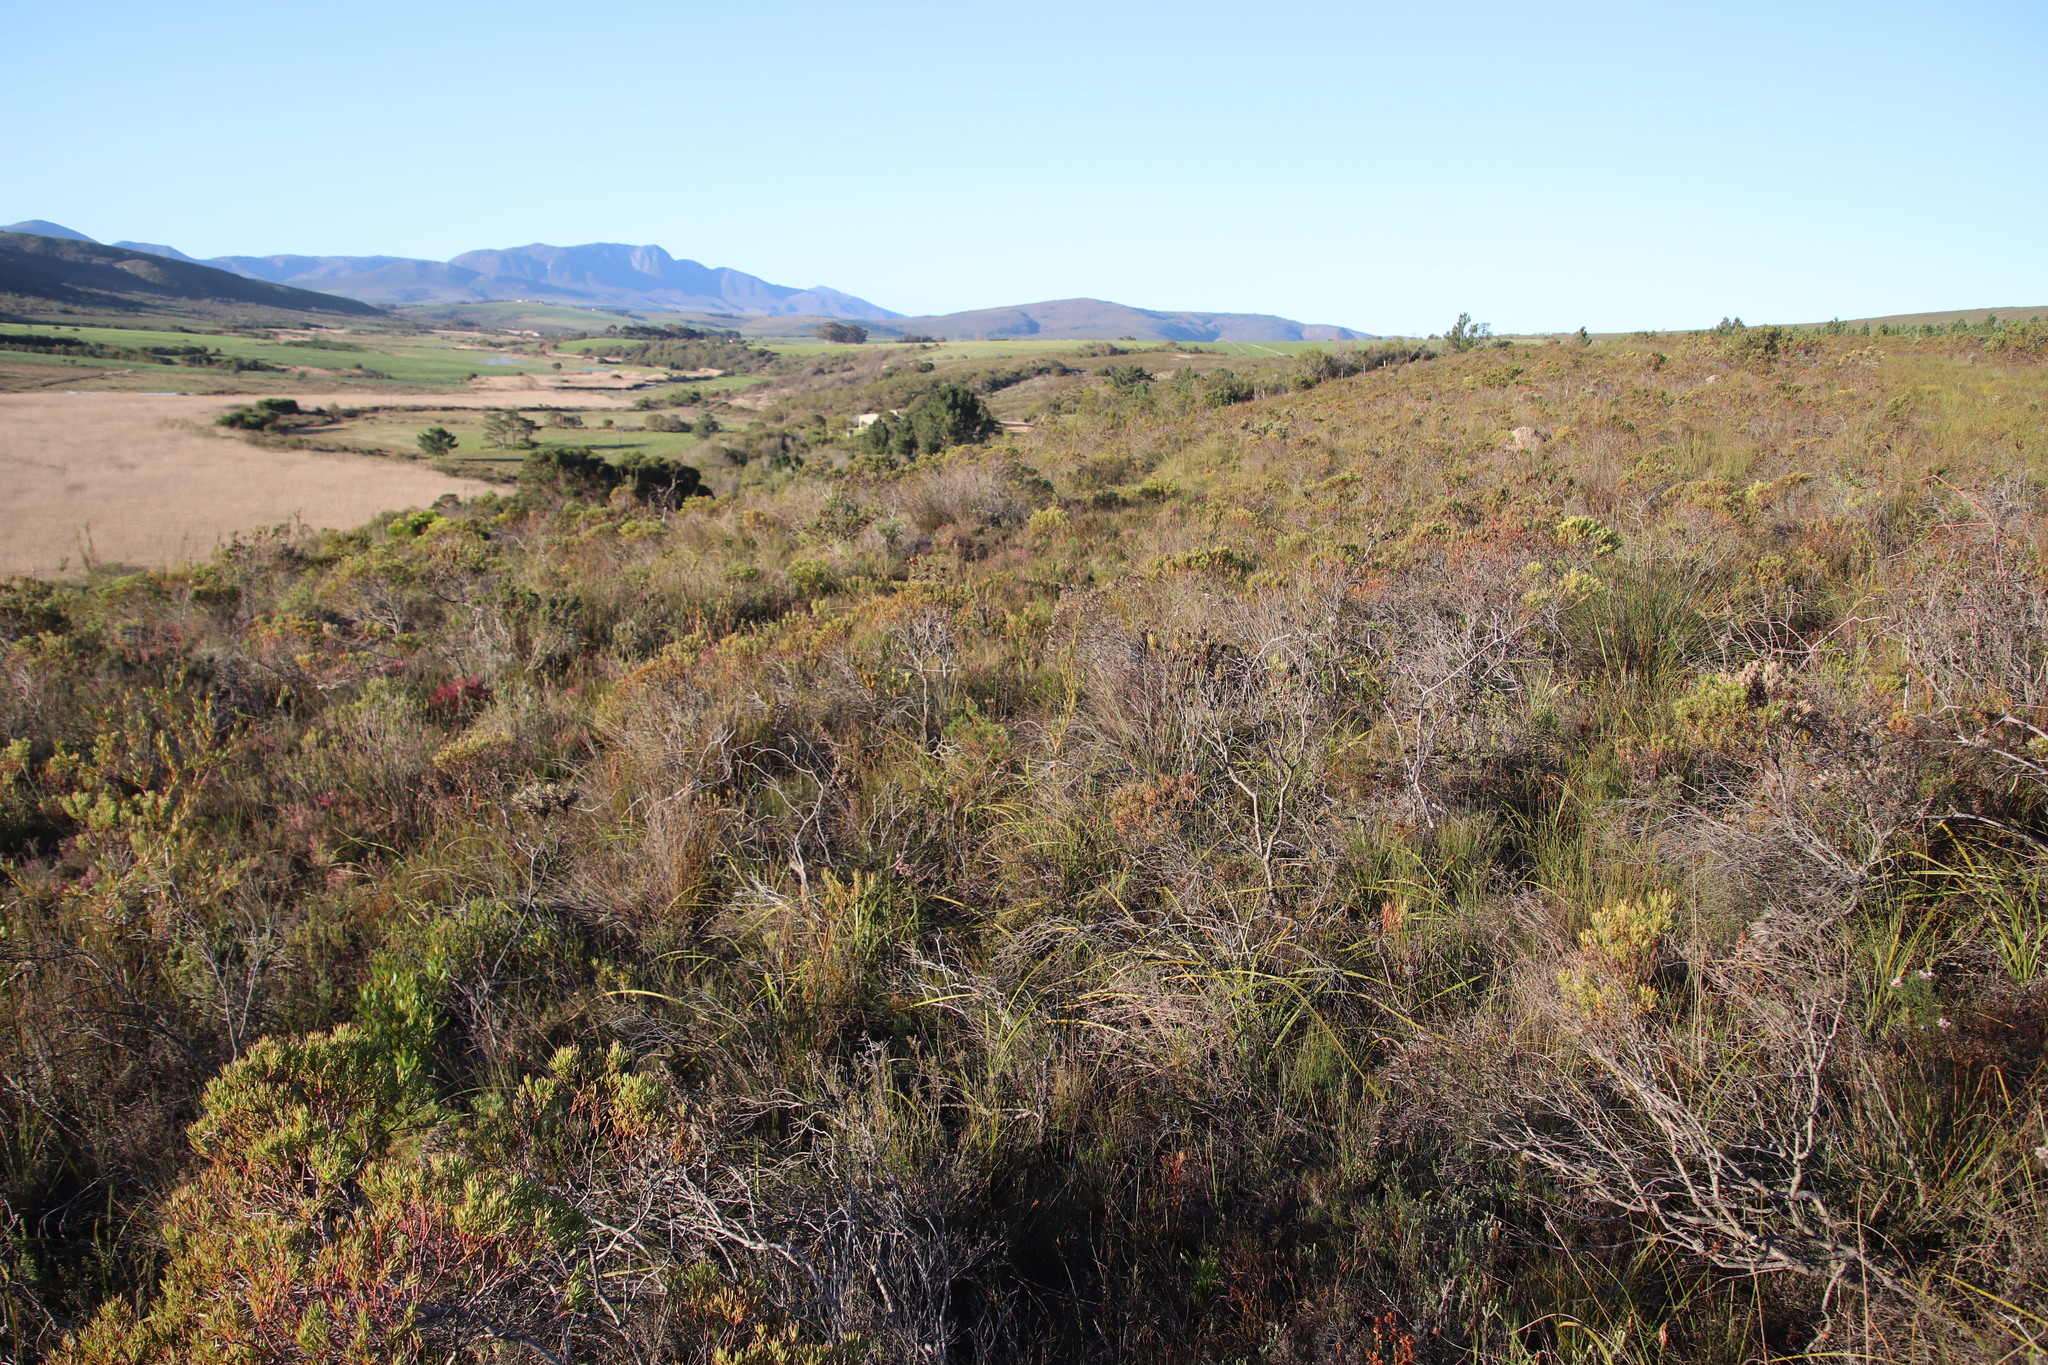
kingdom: Plantae
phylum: Tracheophyta
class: Magnoliopsida
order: Proteales
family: Proteaceae
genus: Leucadendron
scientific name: Leucadendron modestum
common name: Rough-leaf conebush
